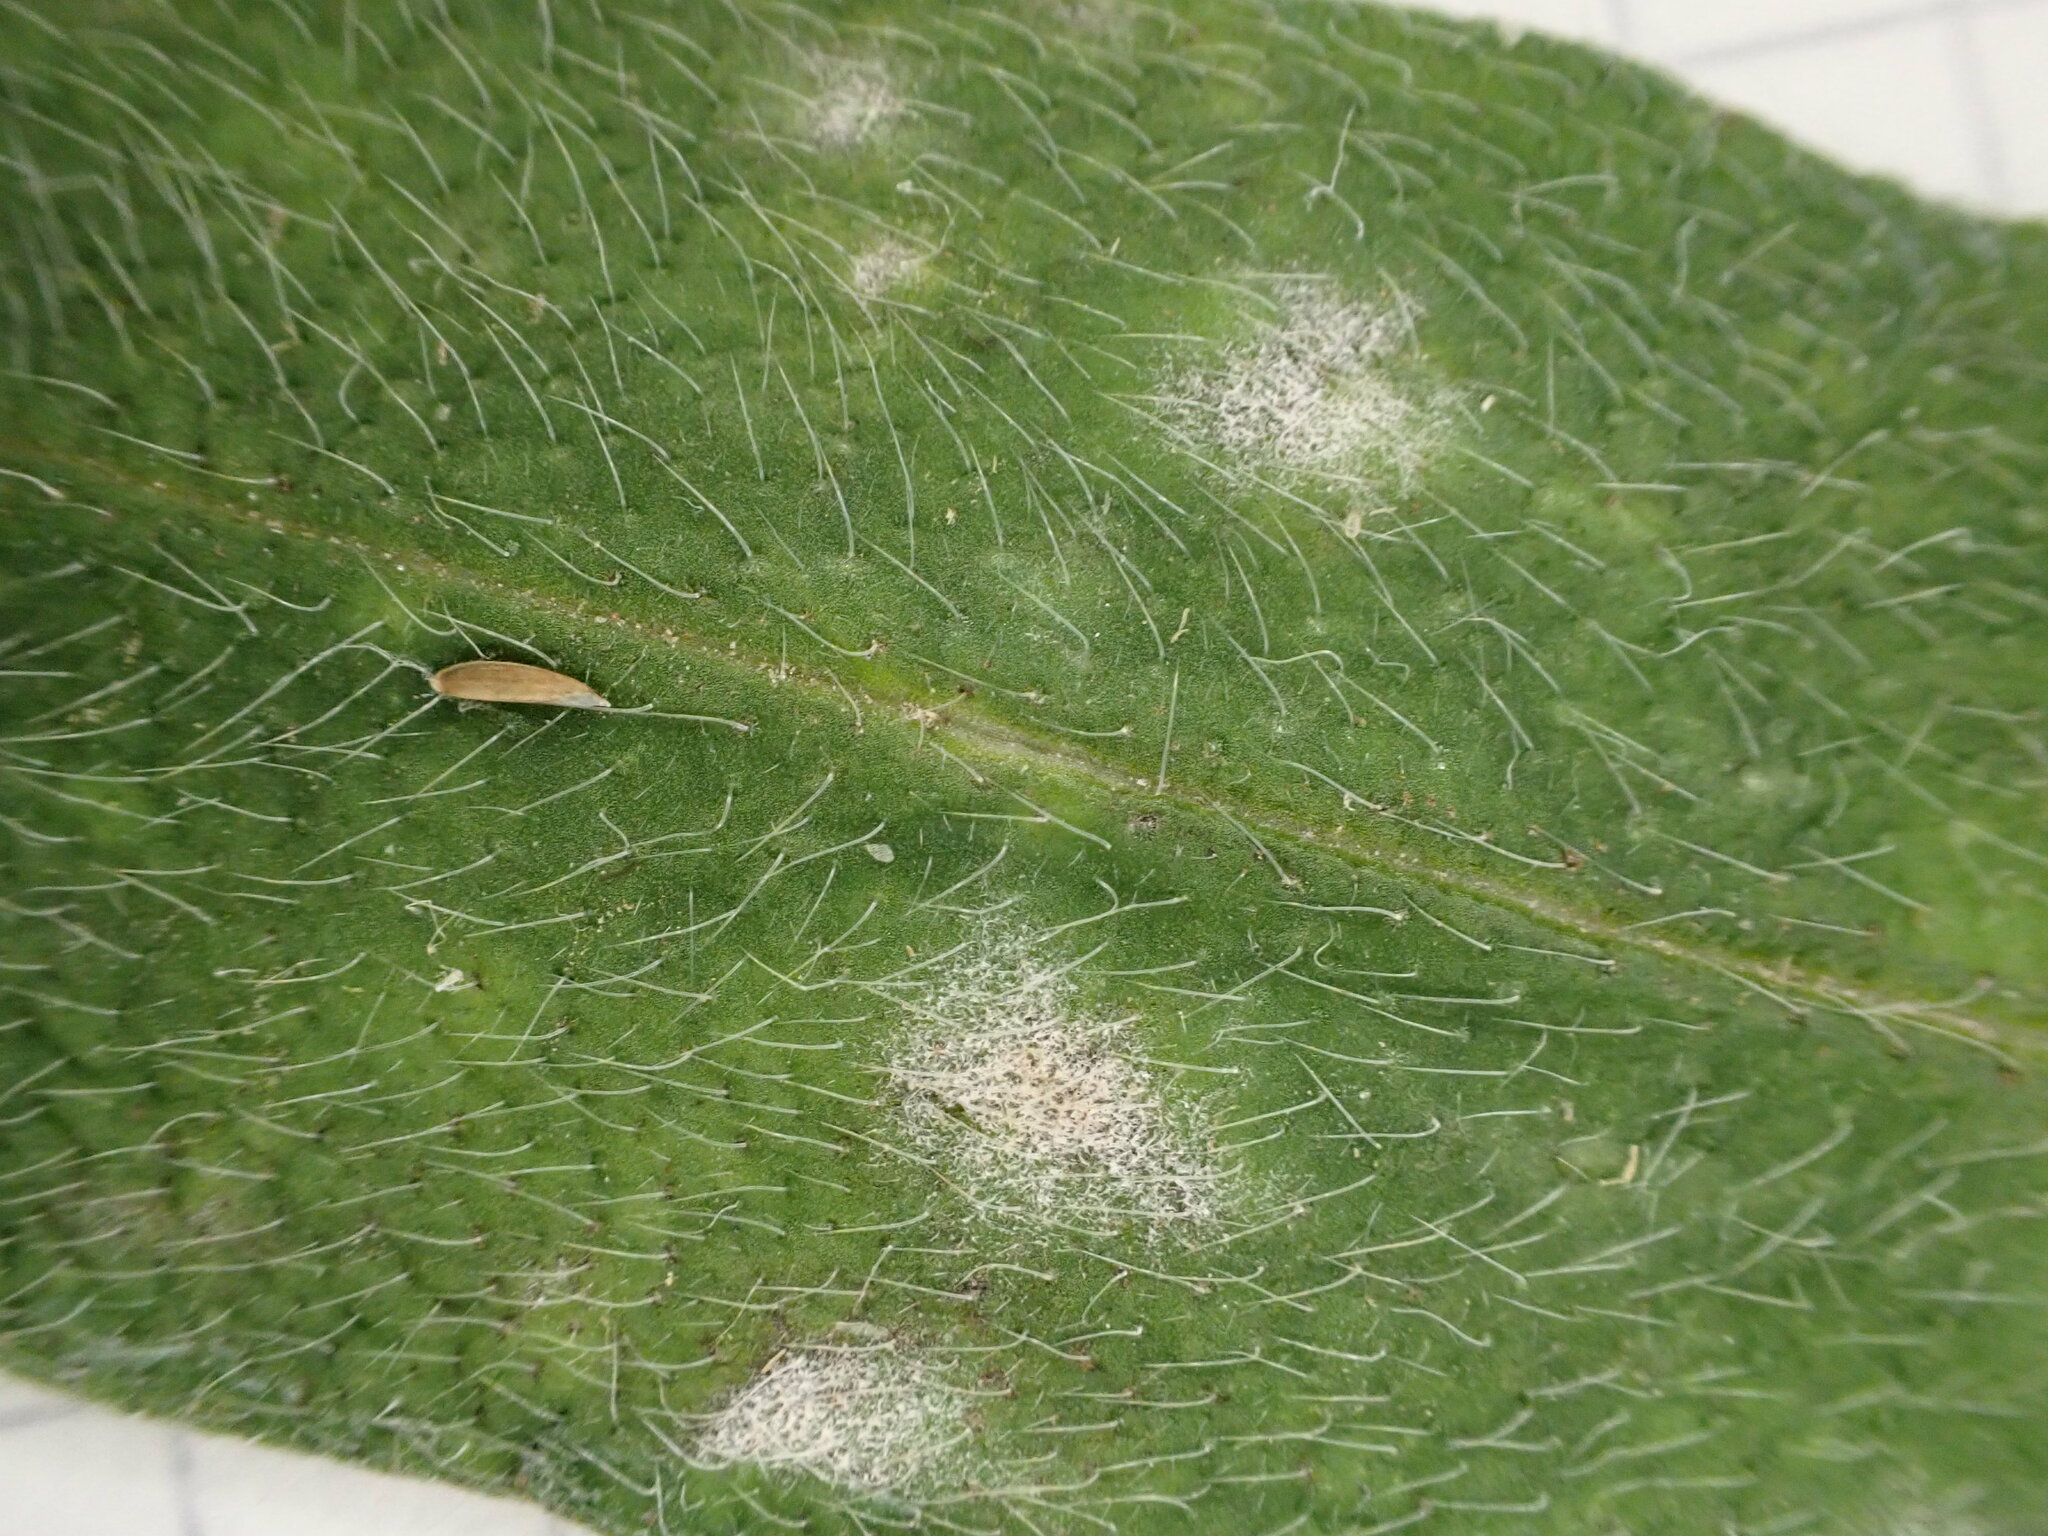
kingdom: Fungi
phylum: Ascomycota
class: Leotiomycetes
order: Helotiales
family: Erysiphaceae
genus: Golovinomyces
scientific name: Golovinomyces asperifolii
